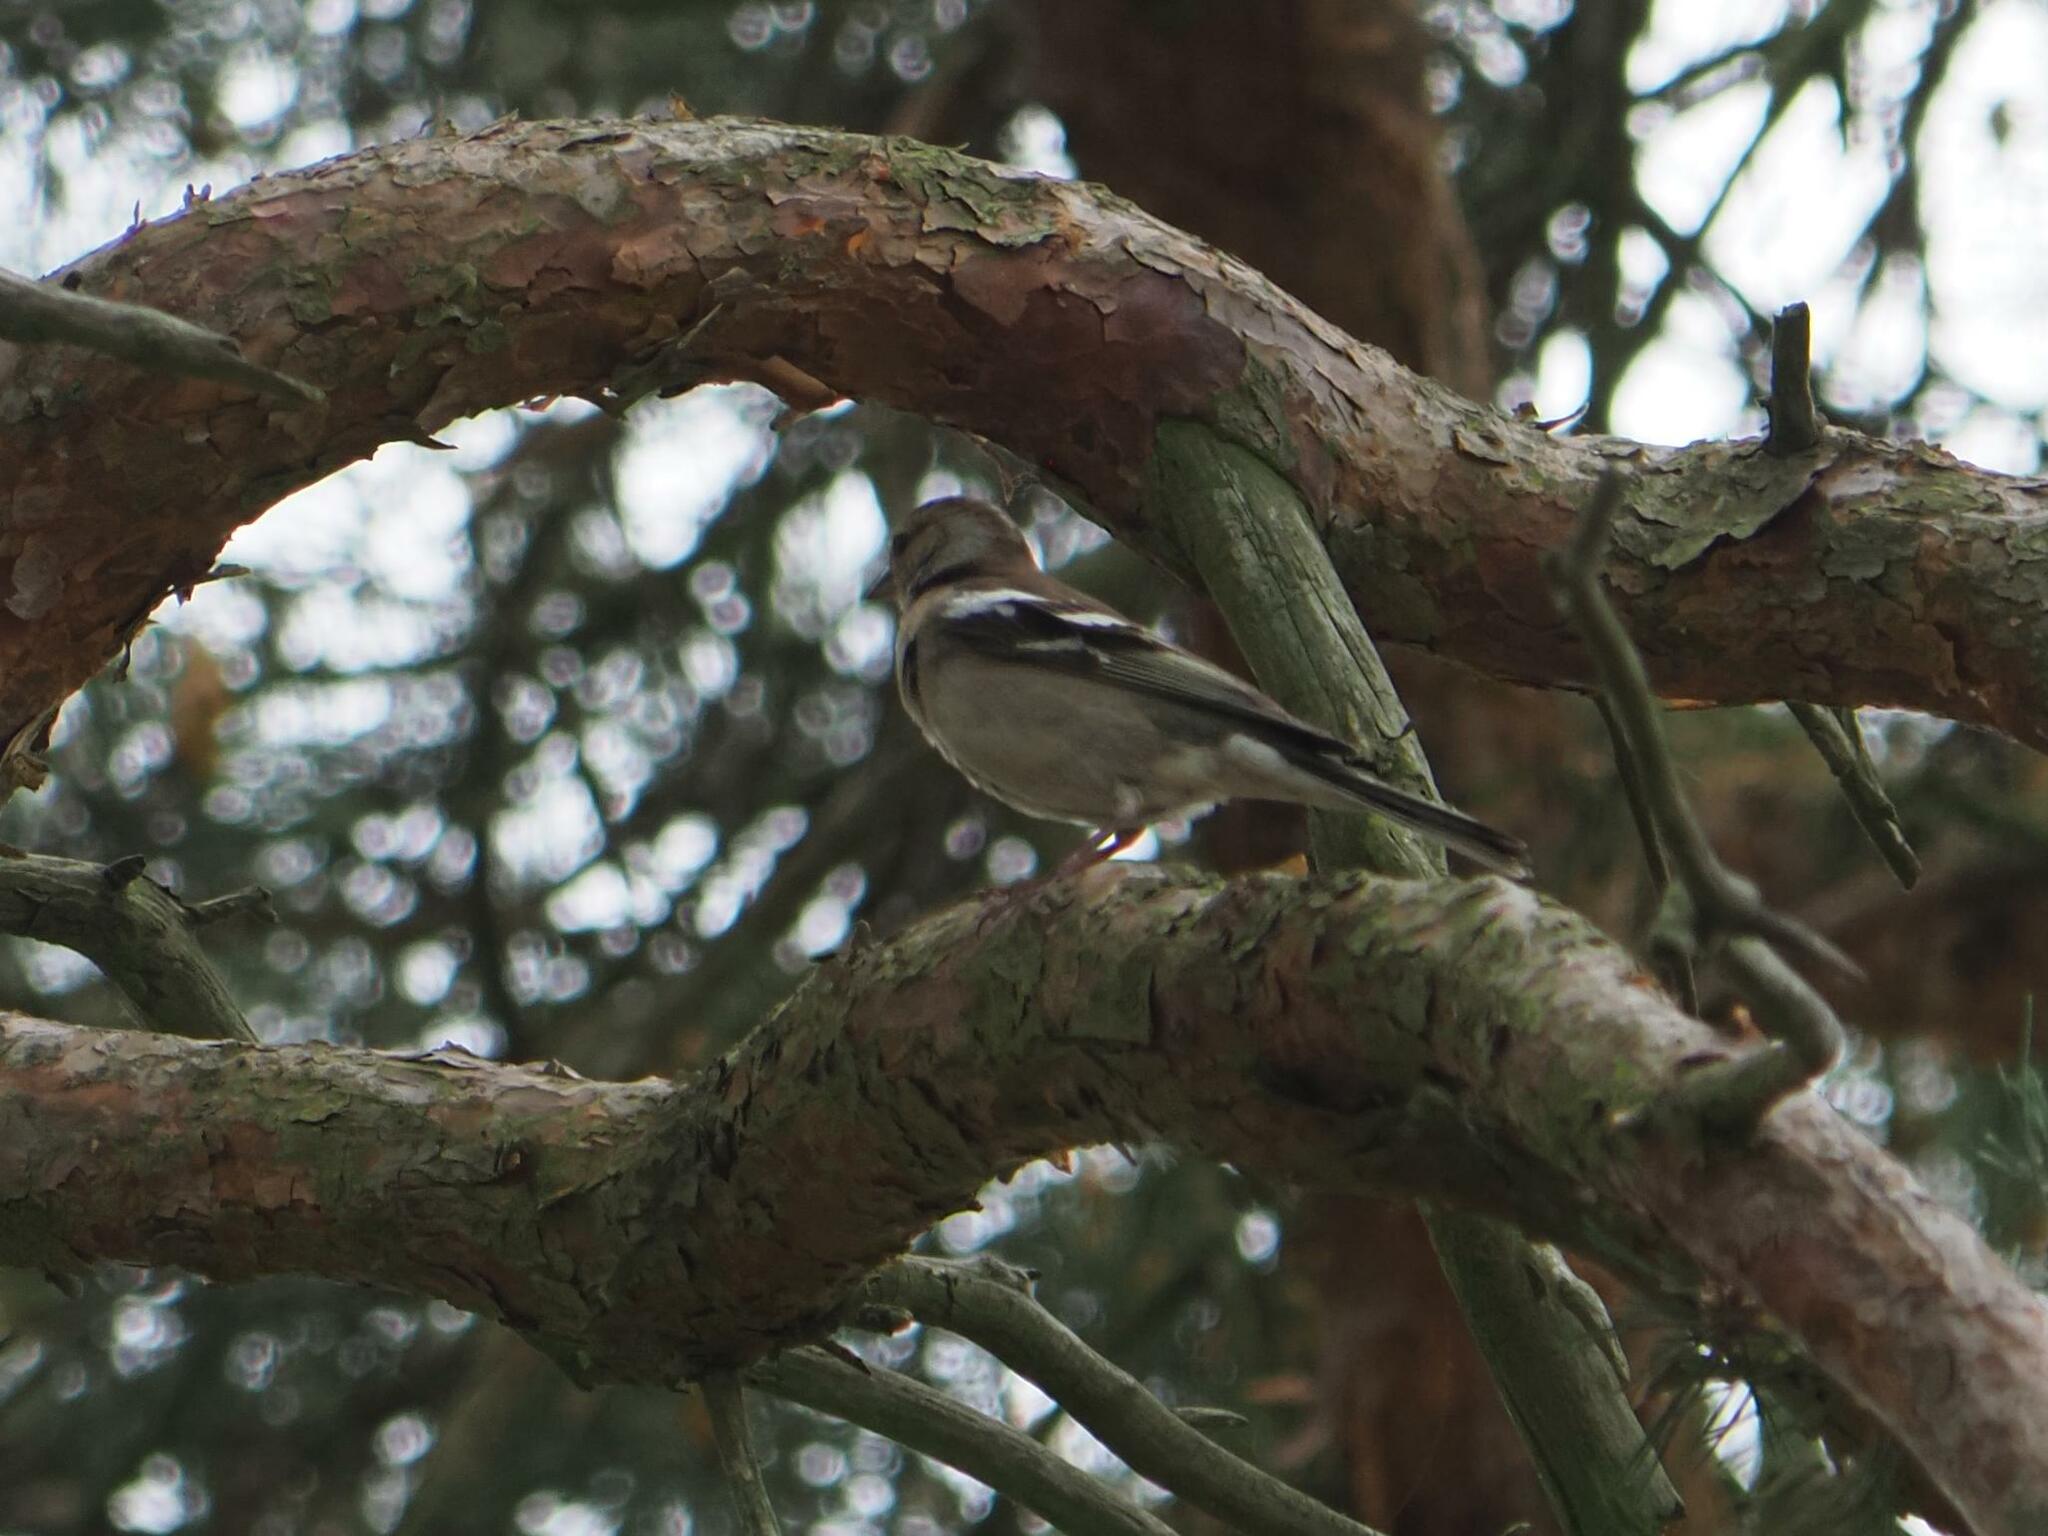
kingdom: Animalia
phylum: Chordata
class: Aves
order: Passeriformes
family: Fringillidae
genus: Fringilla
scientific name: Fringilla coelebs
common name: Common chaffinch
